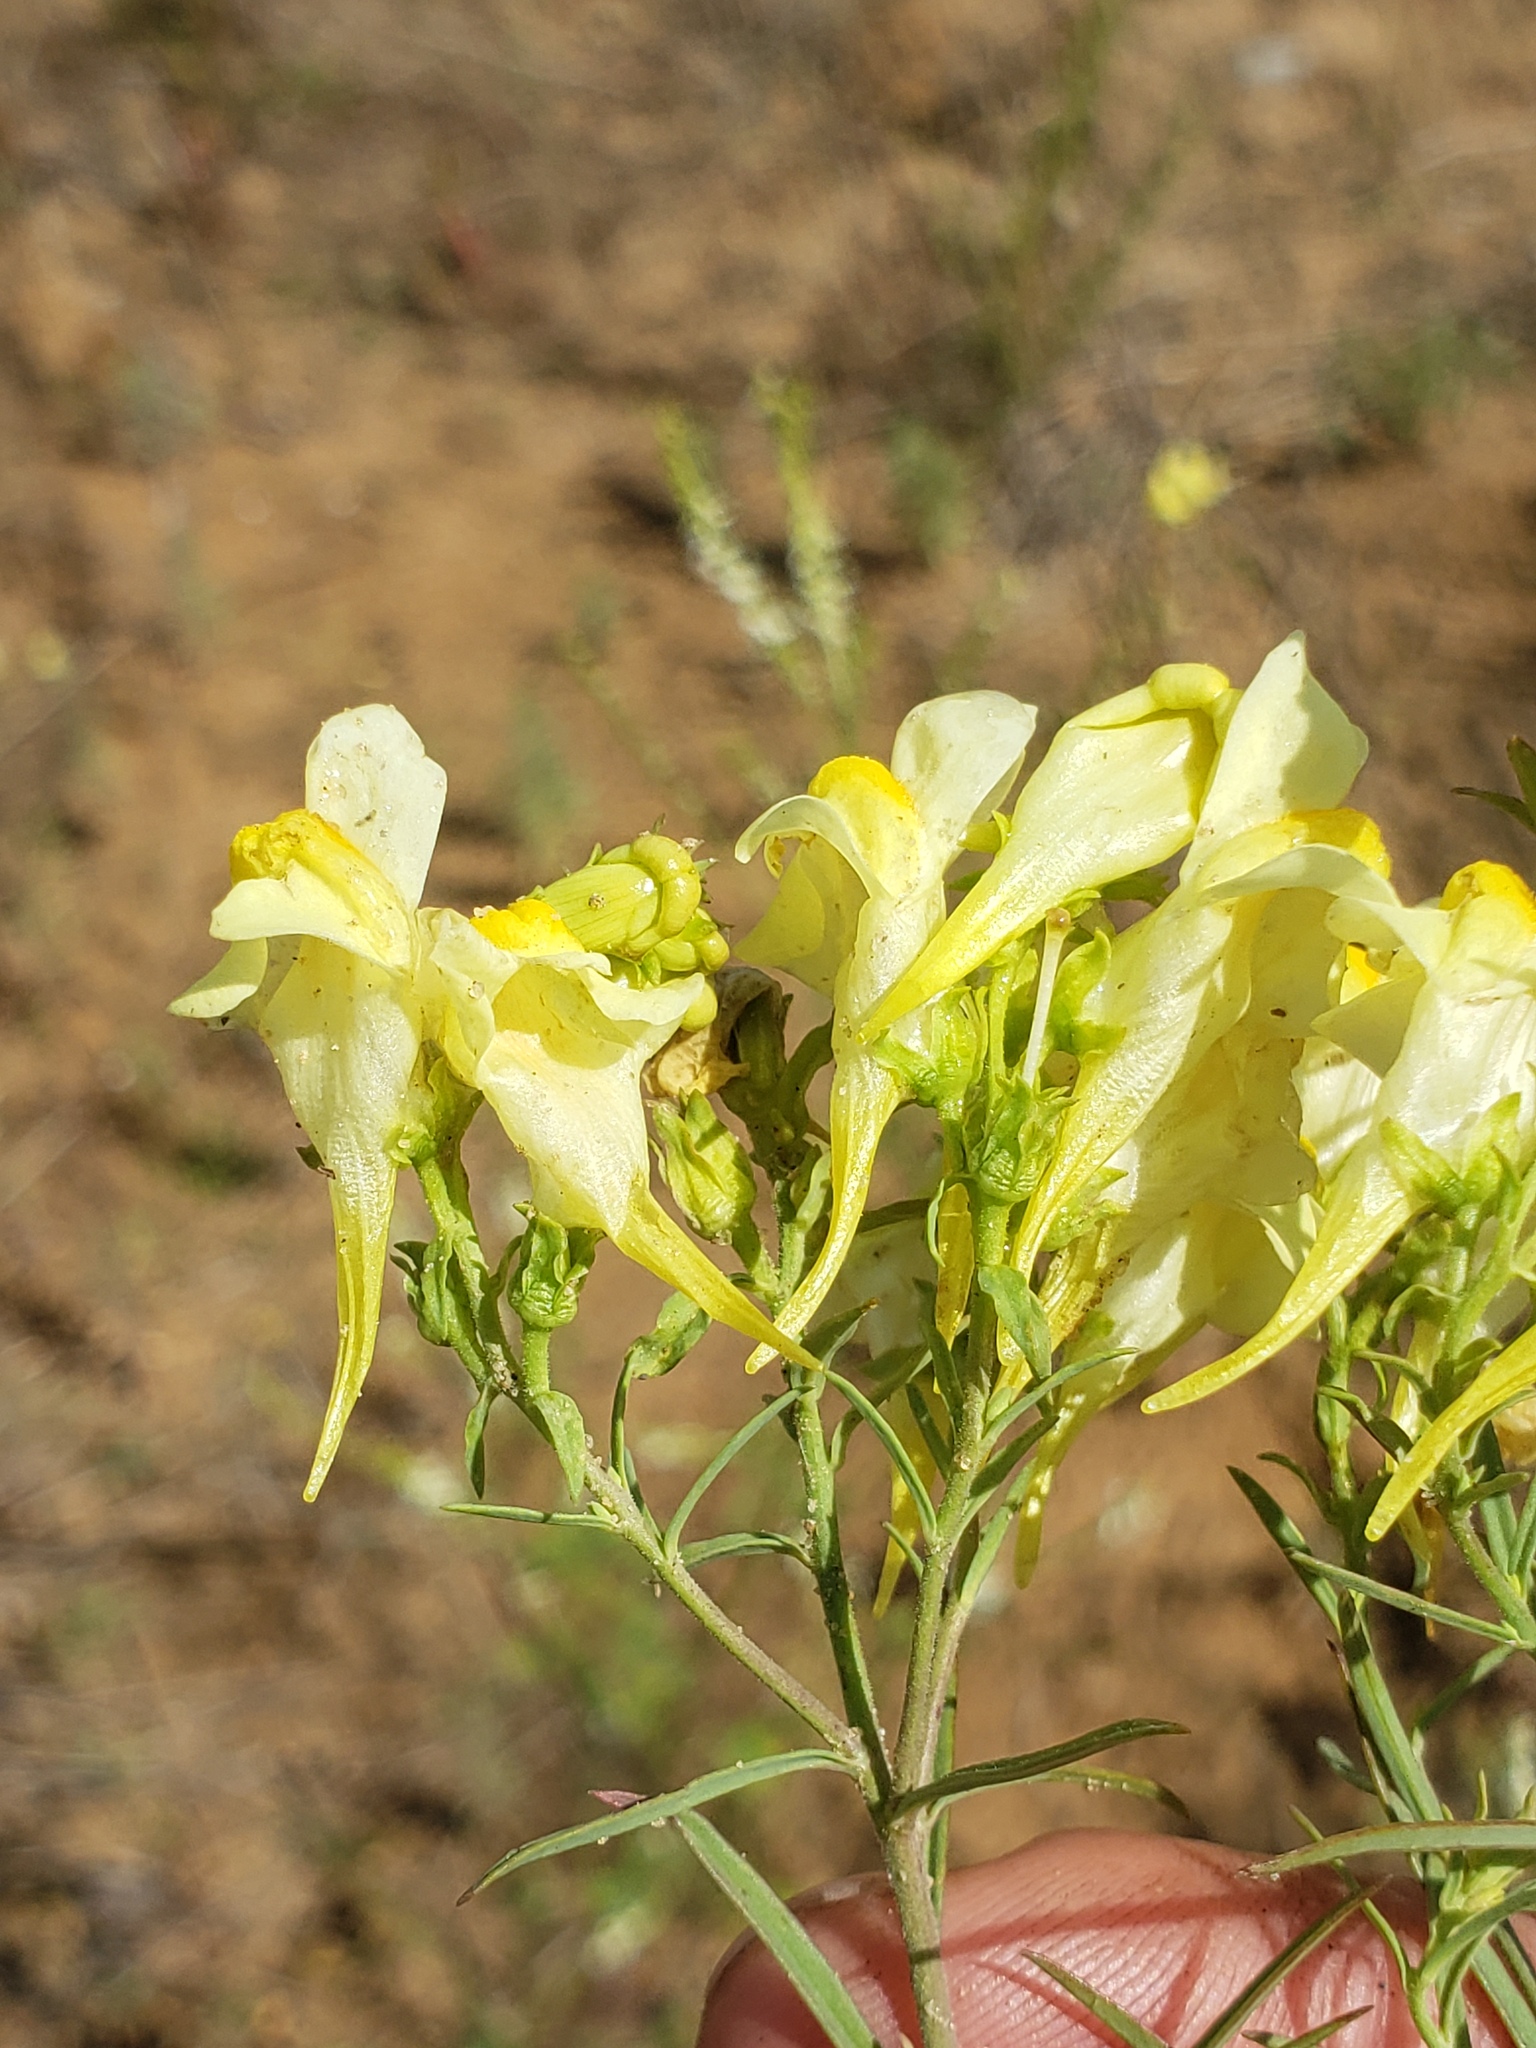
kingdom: Plantae
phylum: Tracheophyta
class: Magnoliopsida
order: Lamiales
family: Plantaginaceae
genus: Linaria
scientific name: Linaria vulgaris
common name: Butter and eggs
